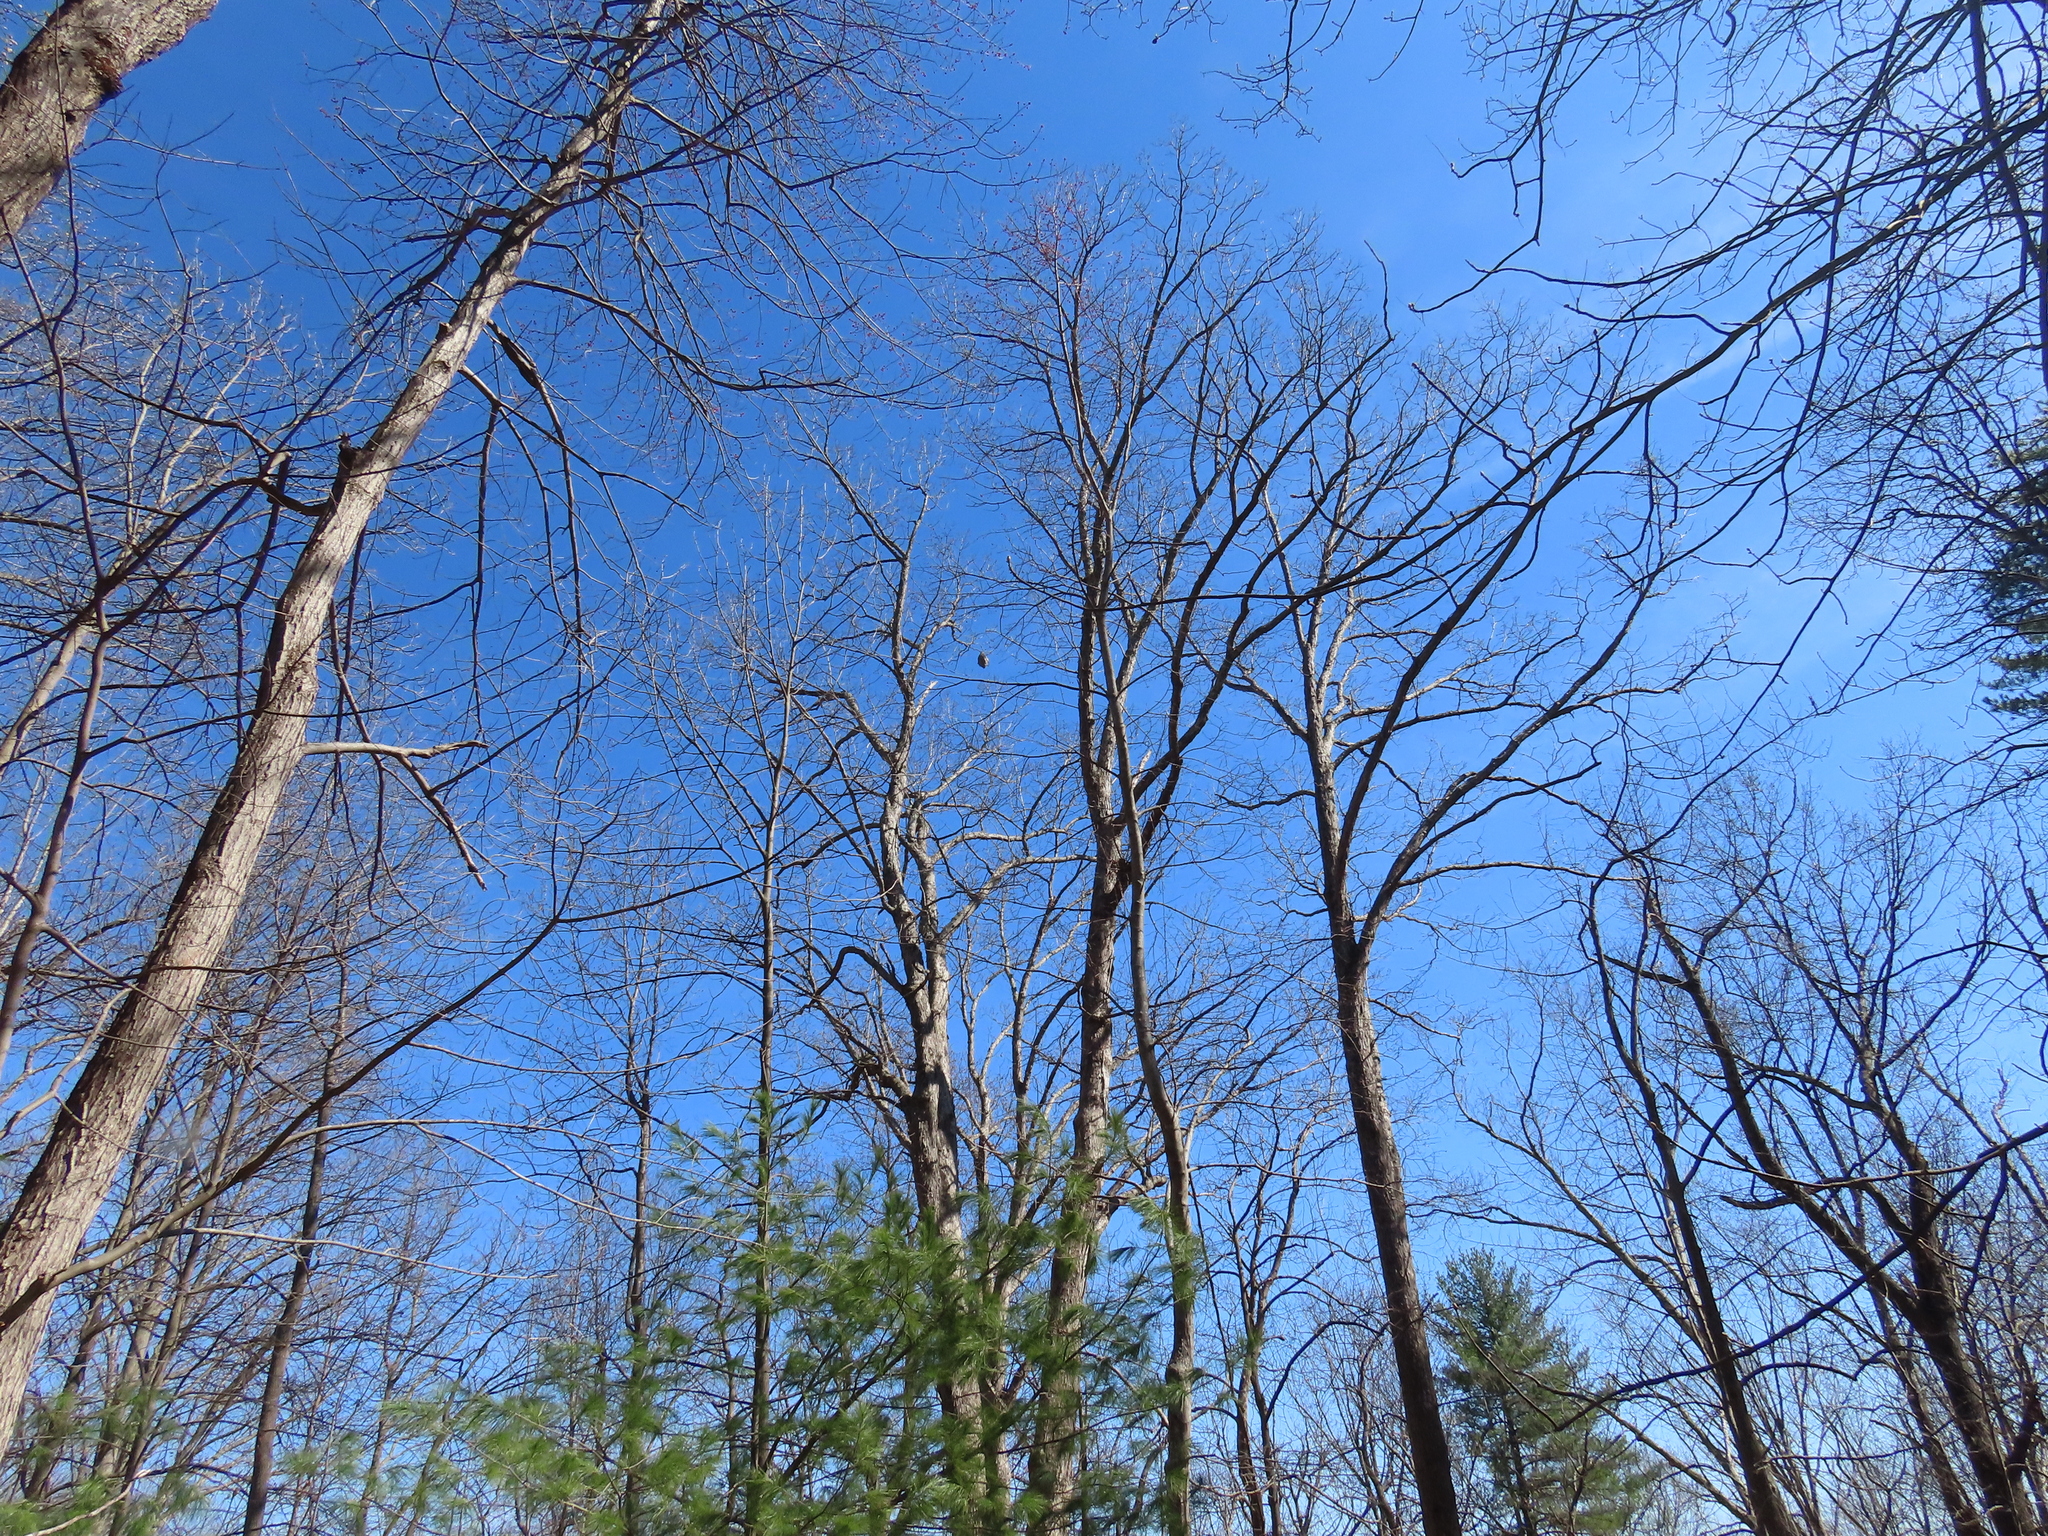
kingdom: Animalia
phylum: Arthropoda
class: Insecta
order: Hymenoptera
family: Vespidae
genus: Dolichovespula
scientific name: Dolichovespula maculata
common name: Bald-faced hornet
